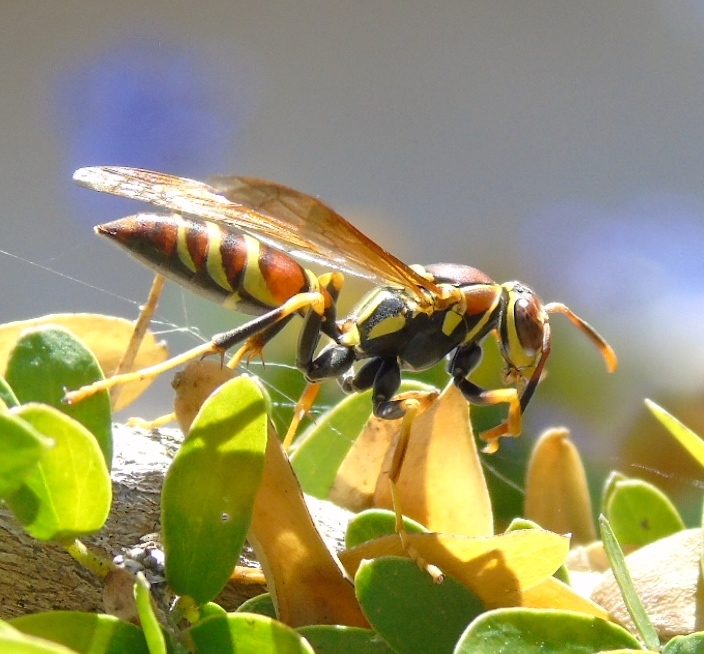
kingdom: Animalia
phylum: Arthropoda
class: Insecta
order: Hymenoptera
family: Eumenidae
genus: Polistes
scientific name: Polistes instabilis
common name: Unstable paper wasp
